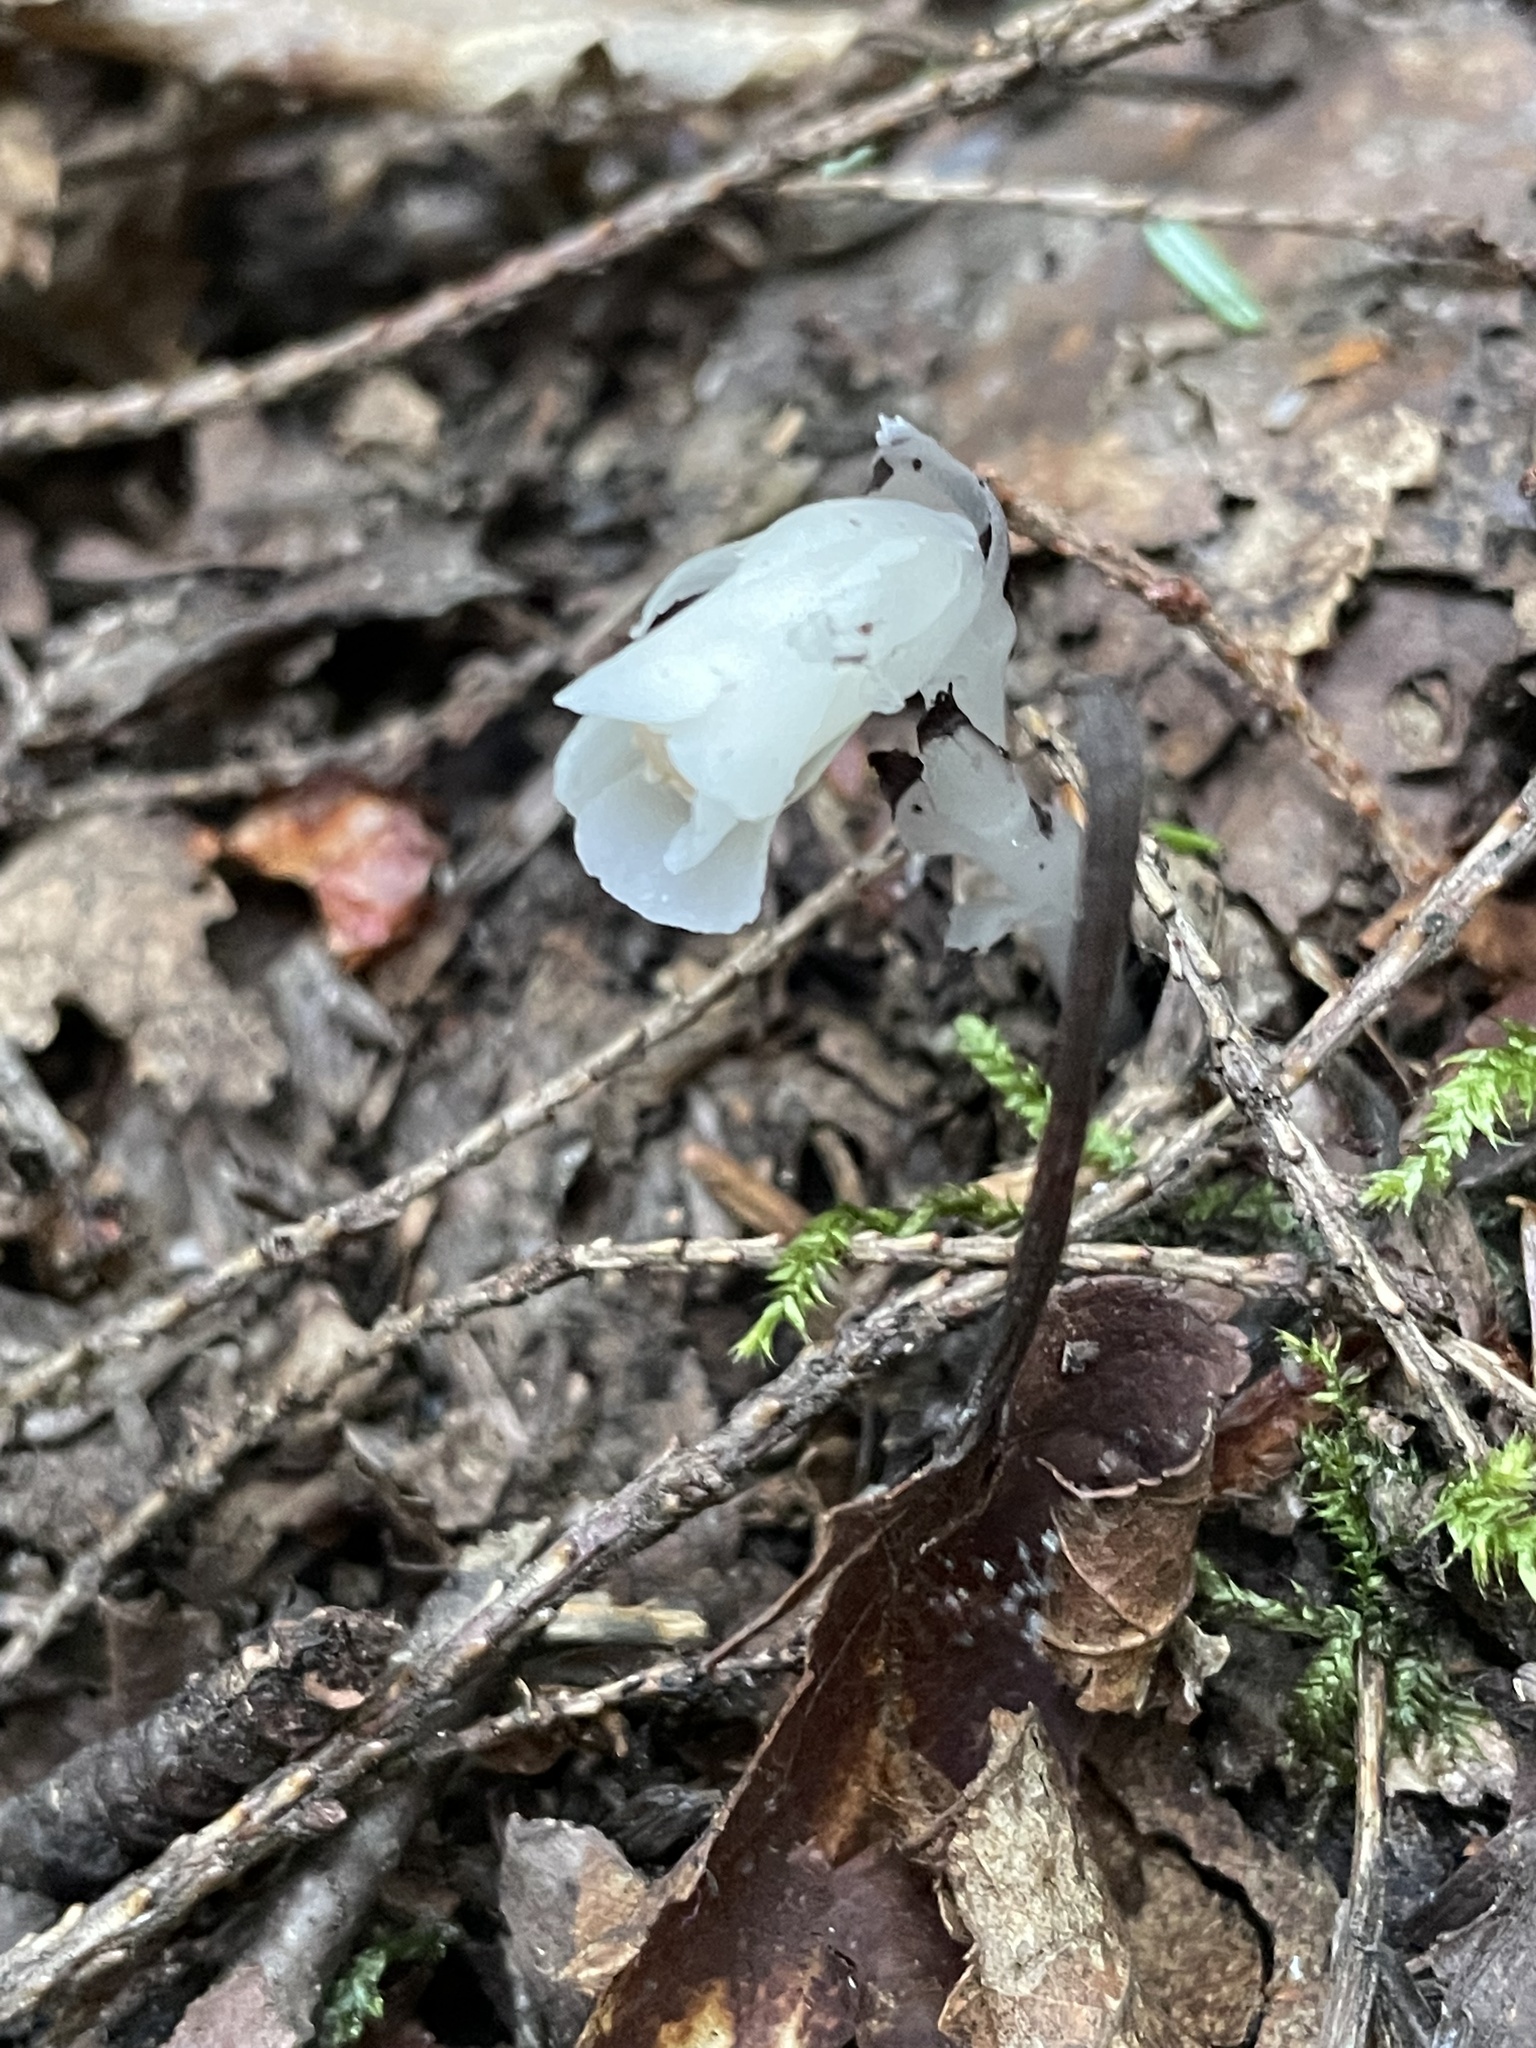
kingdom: Plantae
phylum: Tracheophyta
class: Magnoliopsida
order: Ericales
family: Ericaceae
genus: Monotropa
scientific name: Monotropa uniflora
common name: Convulsion root
